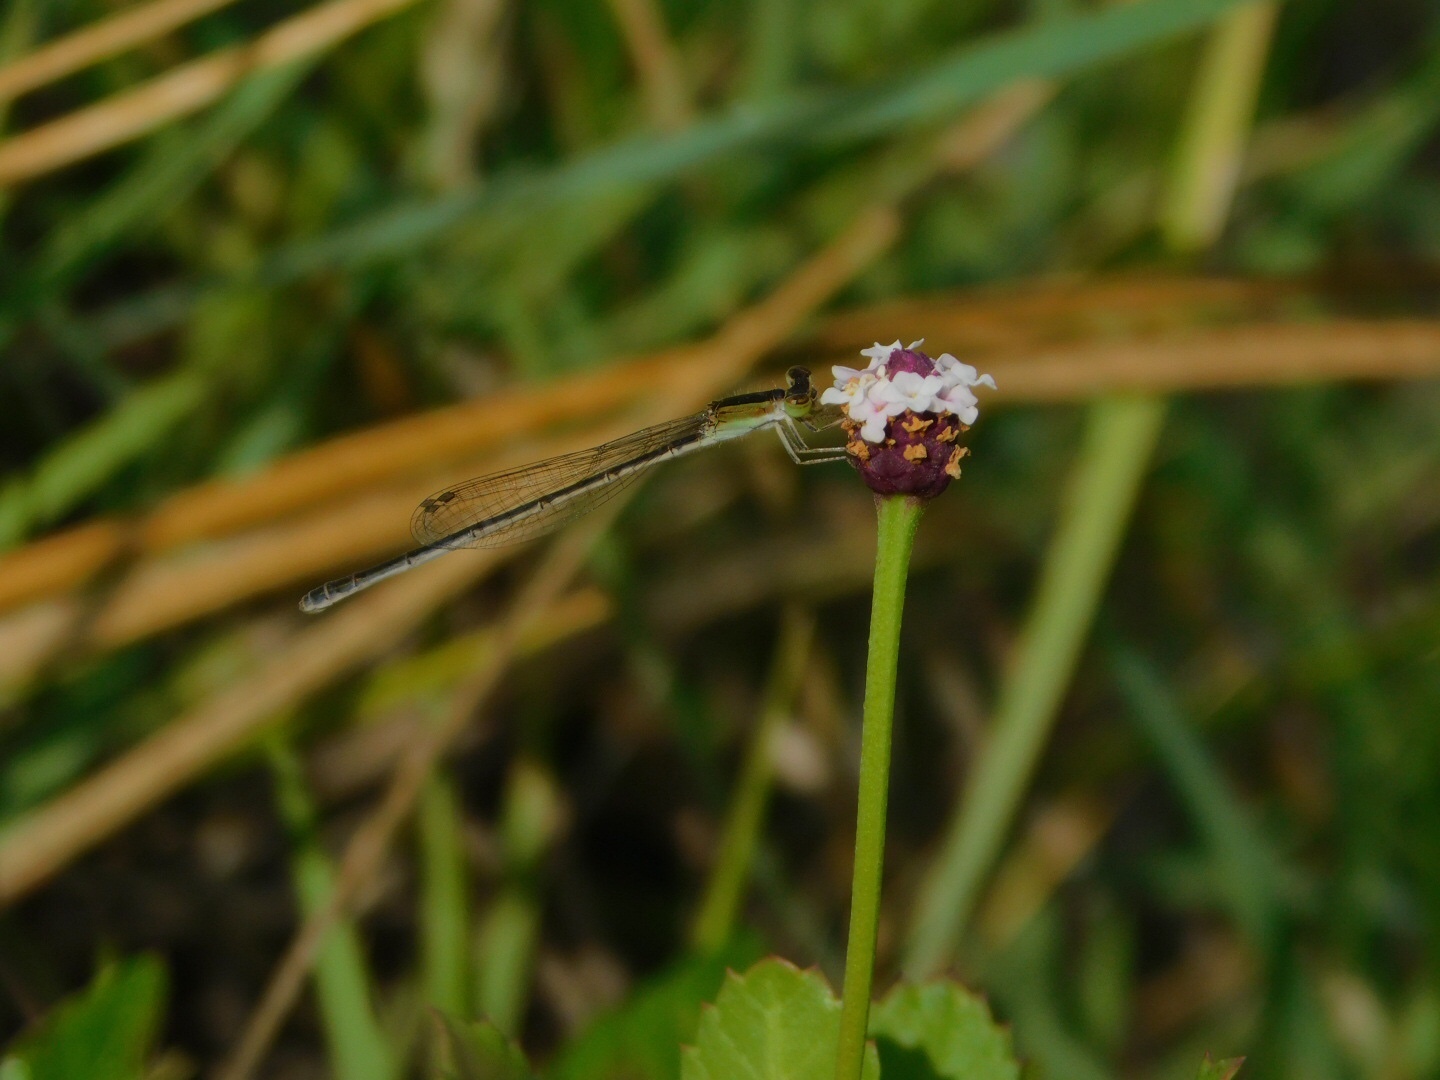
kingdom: Animalia
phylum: Arthropoda
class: Insecta
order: Odonata
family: Coenagrionidae
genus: Ischnura
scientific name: Ischnura hastata
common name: Citrine forktail
